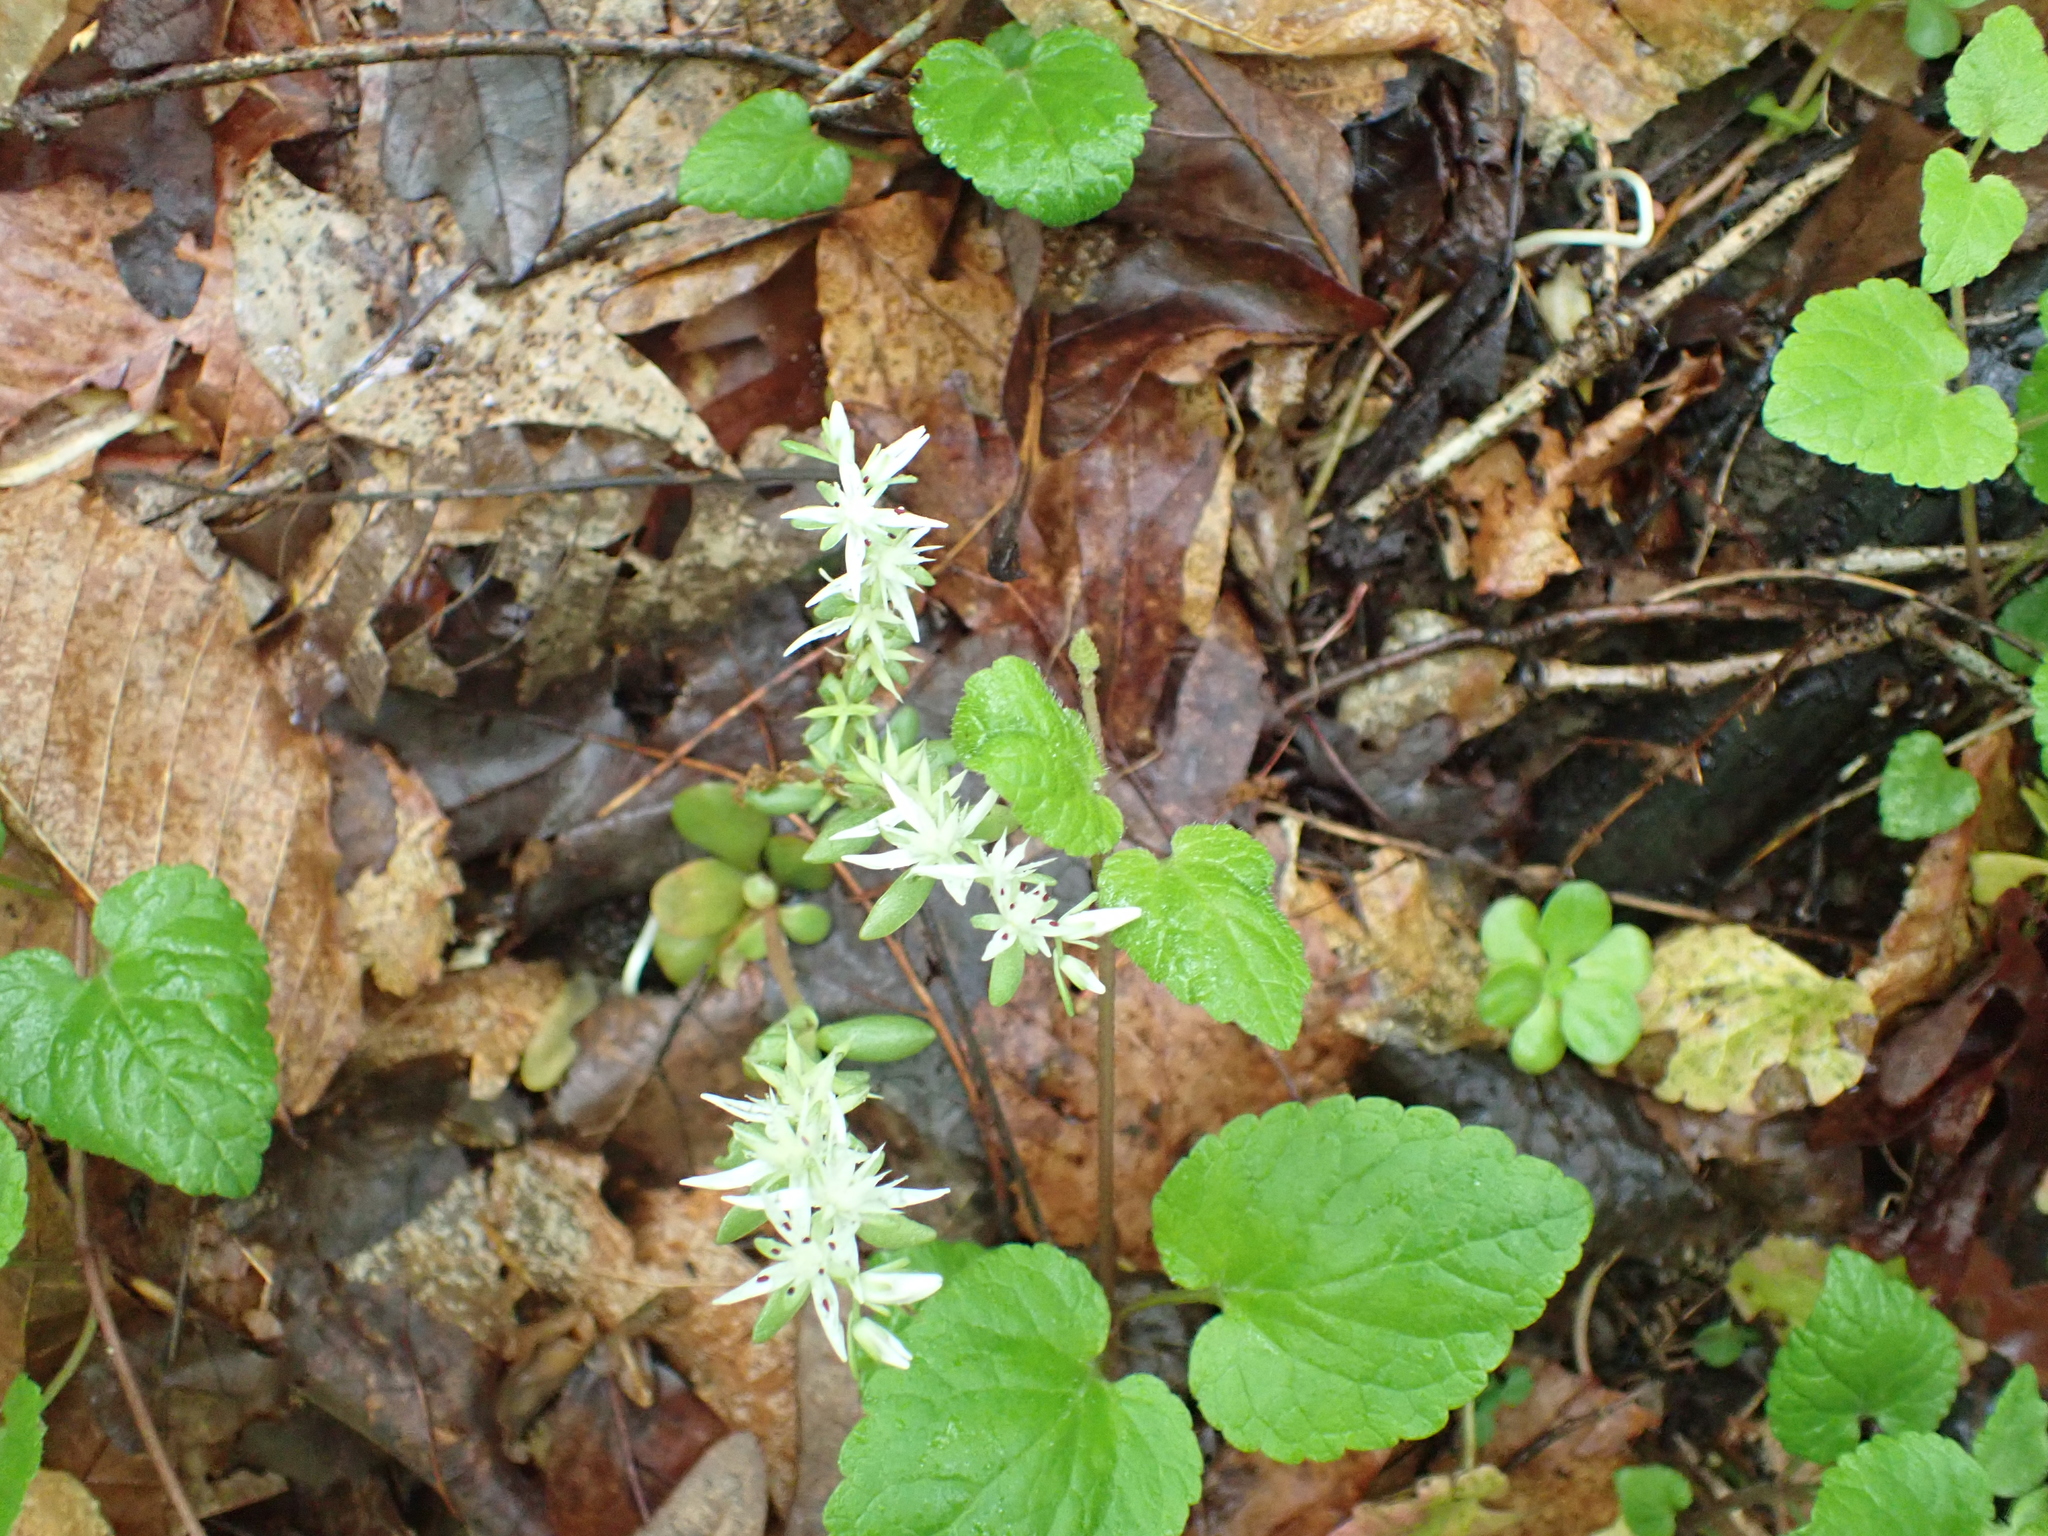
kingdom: Plantae
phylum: Tracheophyta
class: Magnoliopsida
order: Saxifragales
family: Crassulaceae
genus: Sedum
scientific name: Sedum ternatum
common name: Wild stonecrop
